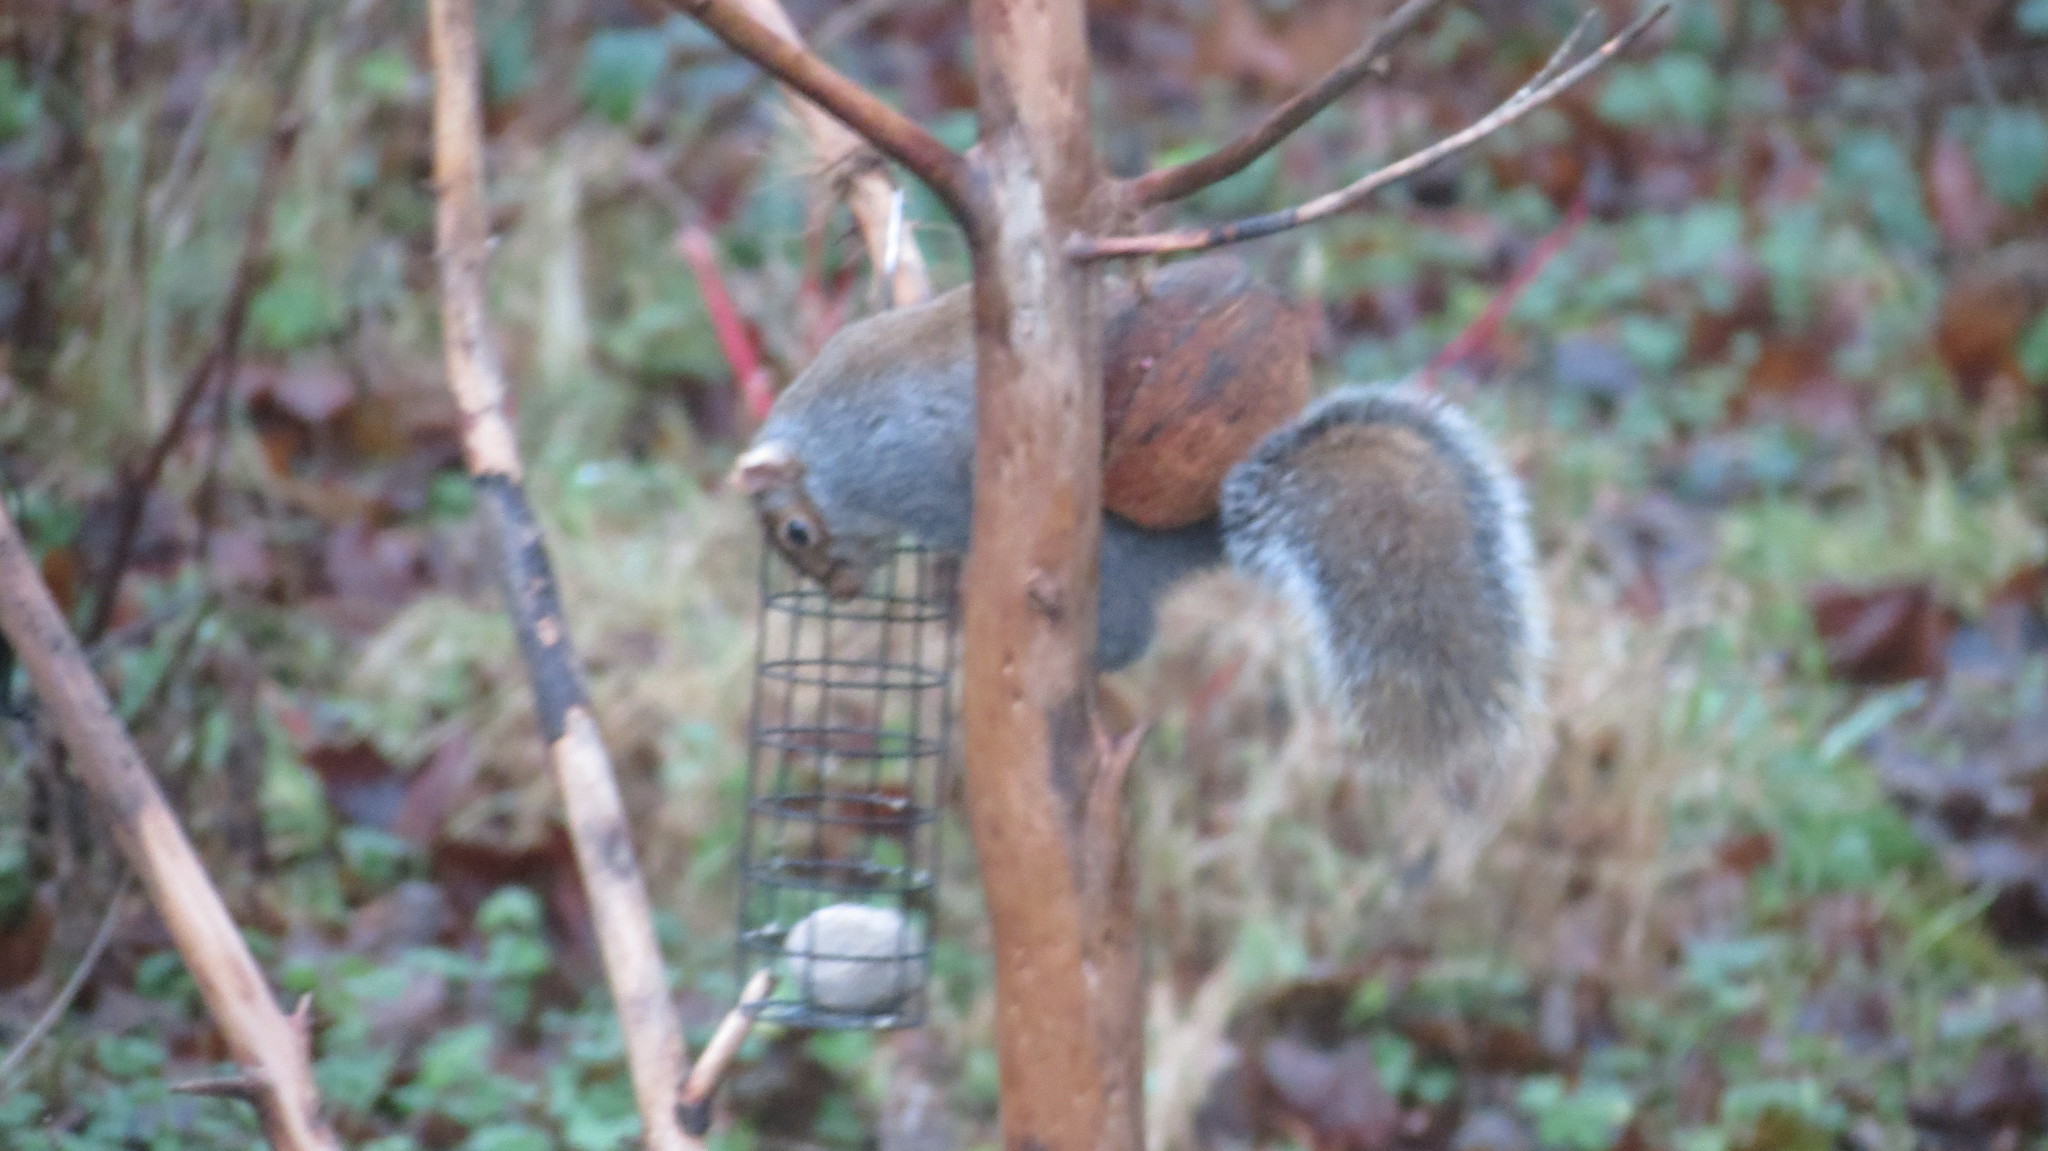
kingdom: Animalia
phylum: Chordata
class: Mammalia
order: Rodentia
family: Sciuridae
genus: Sciurus
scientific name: Sciurus carolinensis
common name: Eastern gray squirrel
